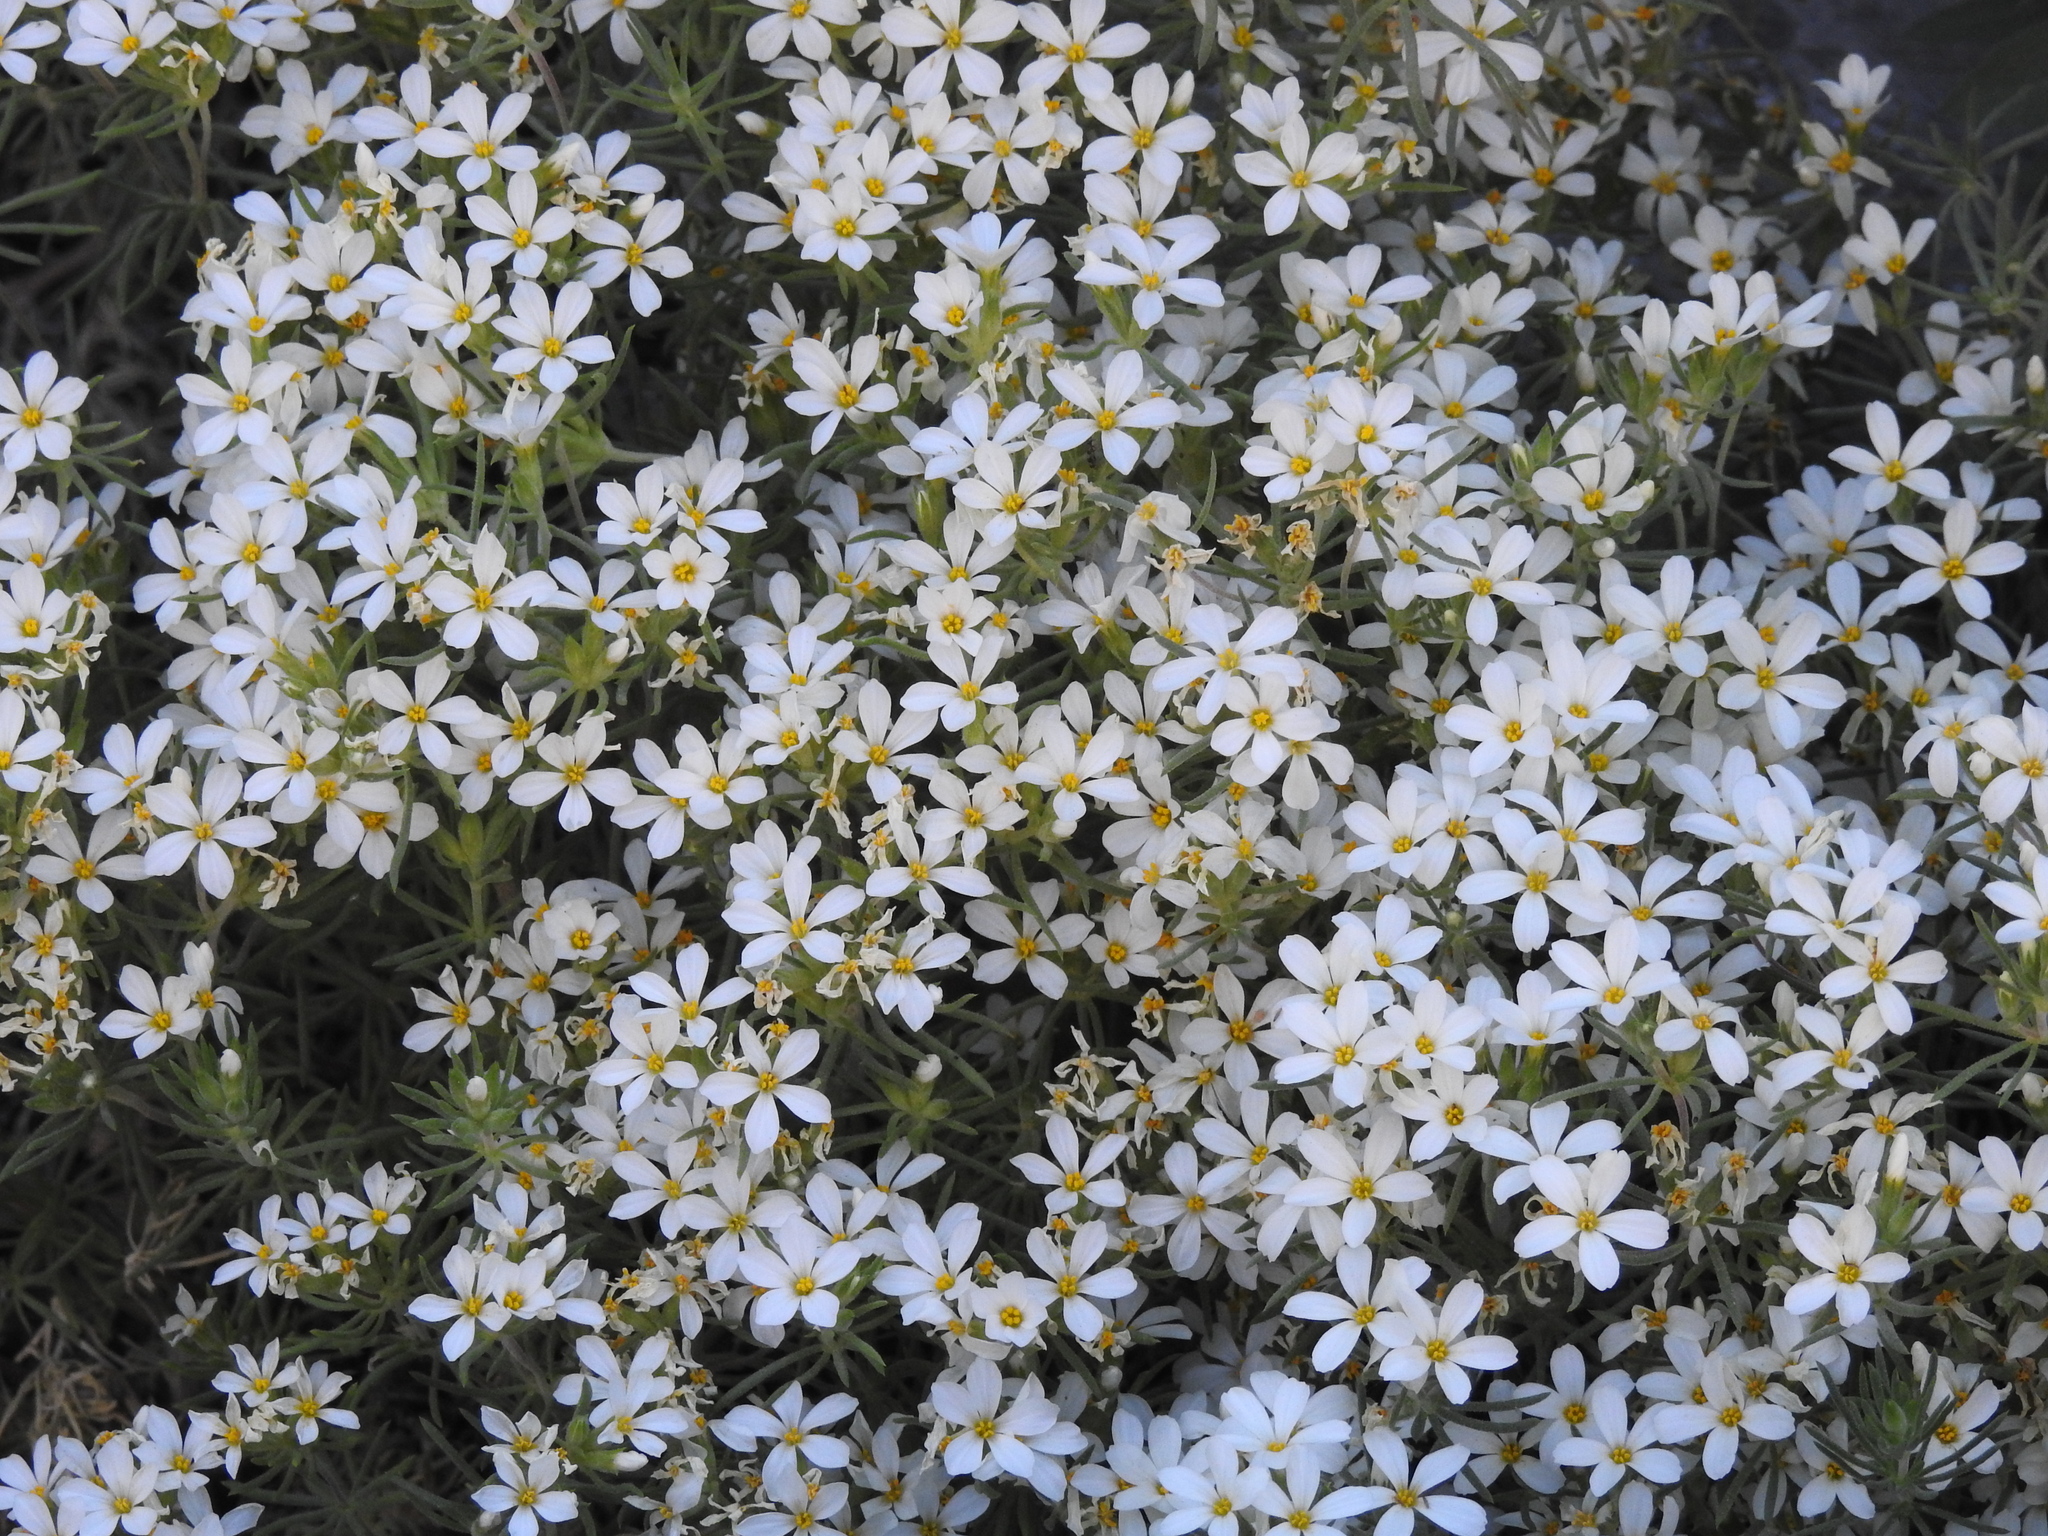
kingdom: Plantae
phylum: Tracheophyta
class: Magnoliopsida
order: Ericales
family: Polemoniaceae
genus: Leptosiphon
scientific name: Leptosiphon nuttallii
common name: Nuttall's linanthus
